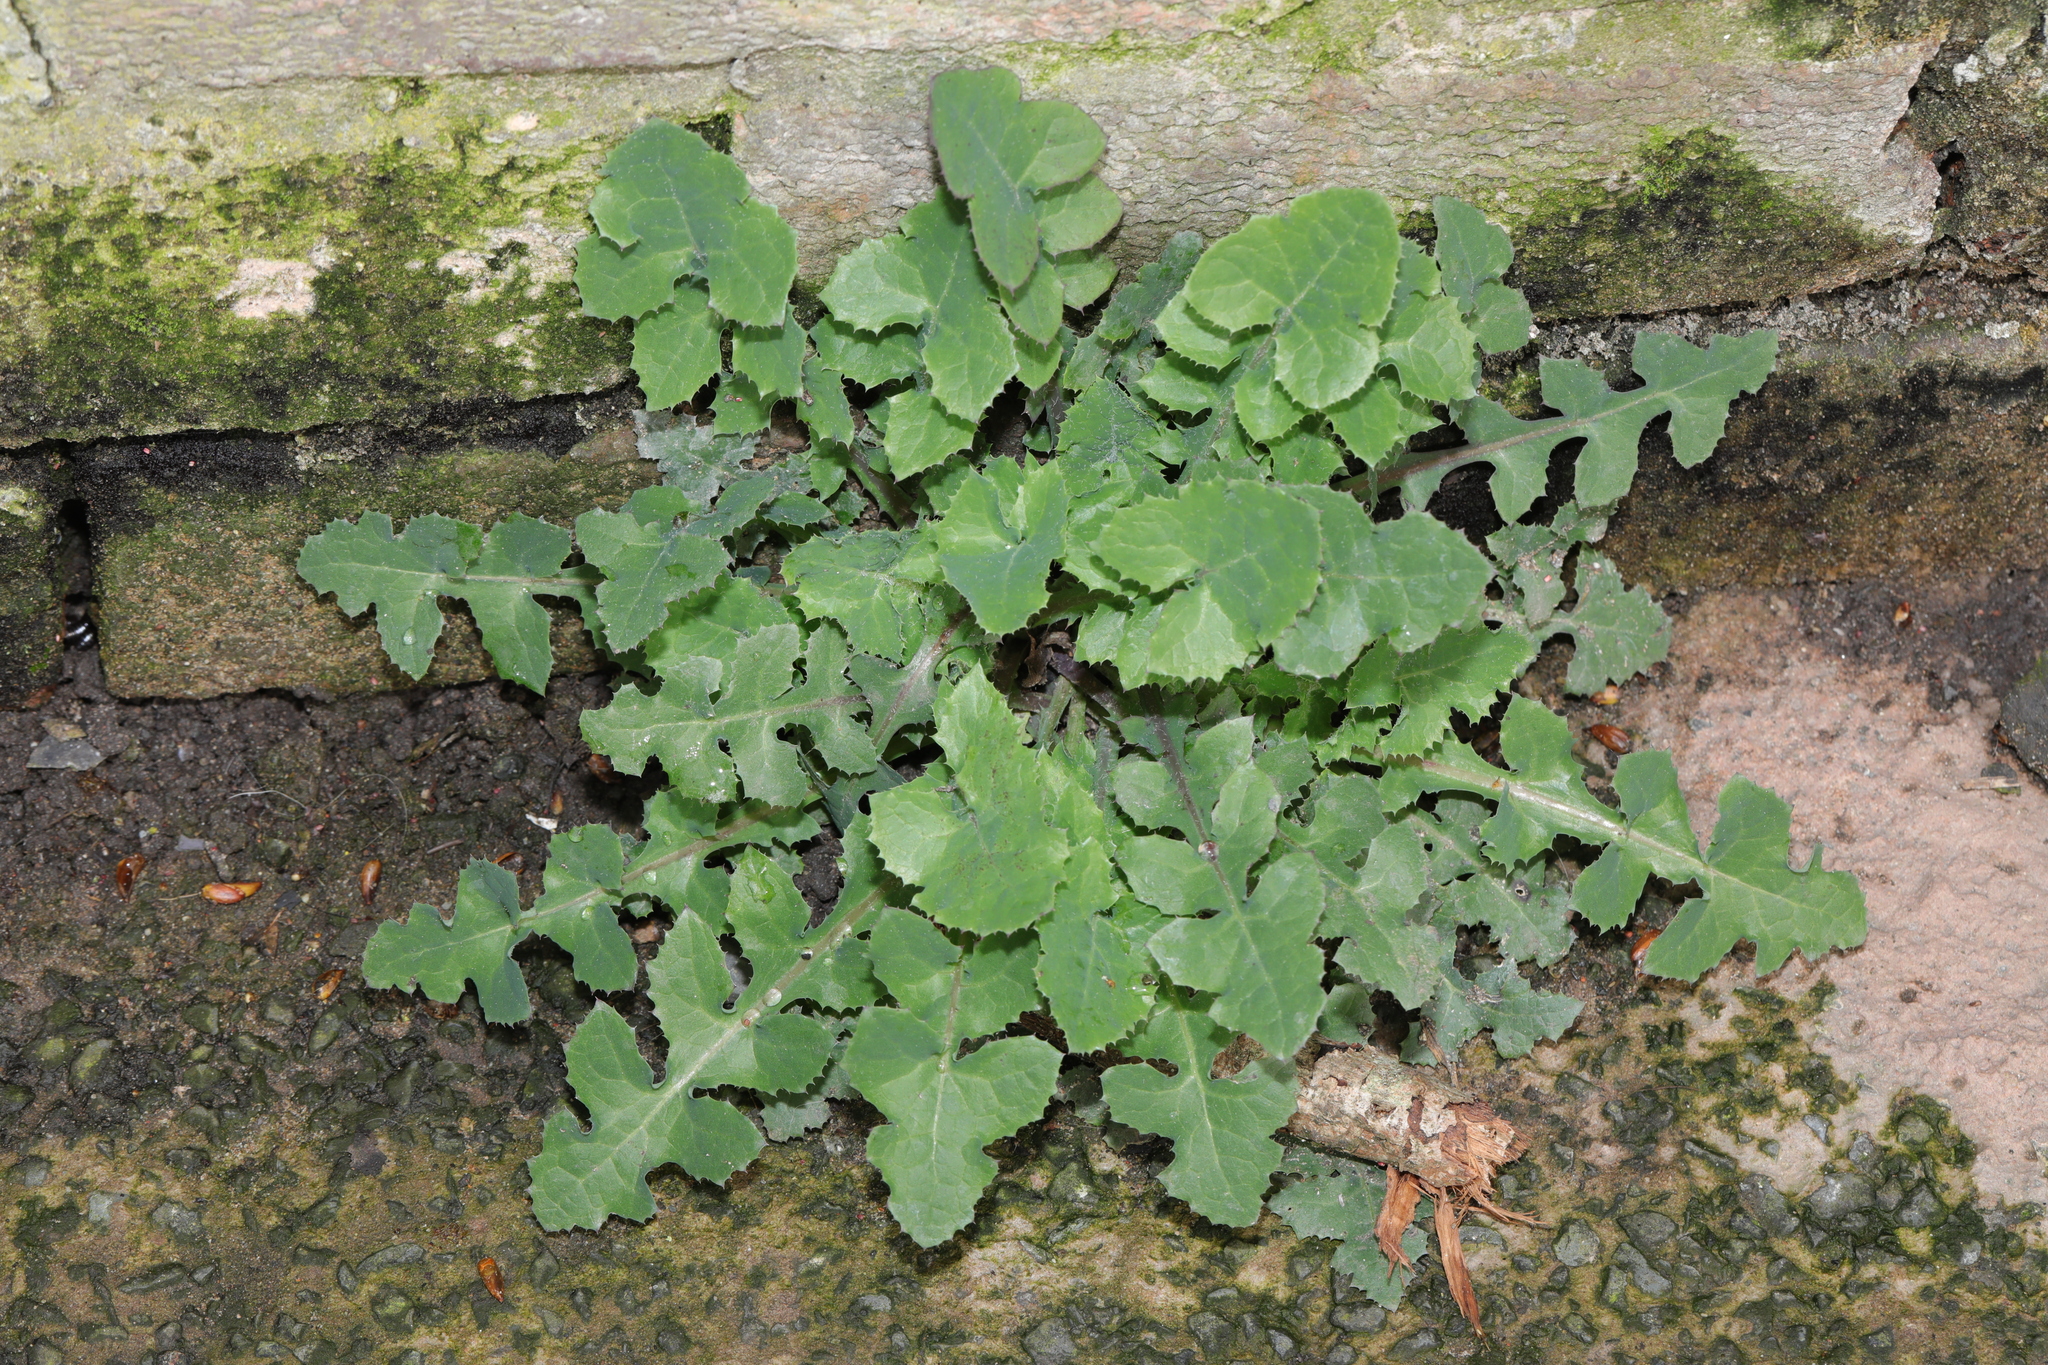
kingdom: Plantae
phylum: Tracheophyta
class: Magnoliopsida
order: Asterales
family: Asteraceae
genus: Sonchus
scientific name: Sonchus oleraceus
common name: Common sowthistle
